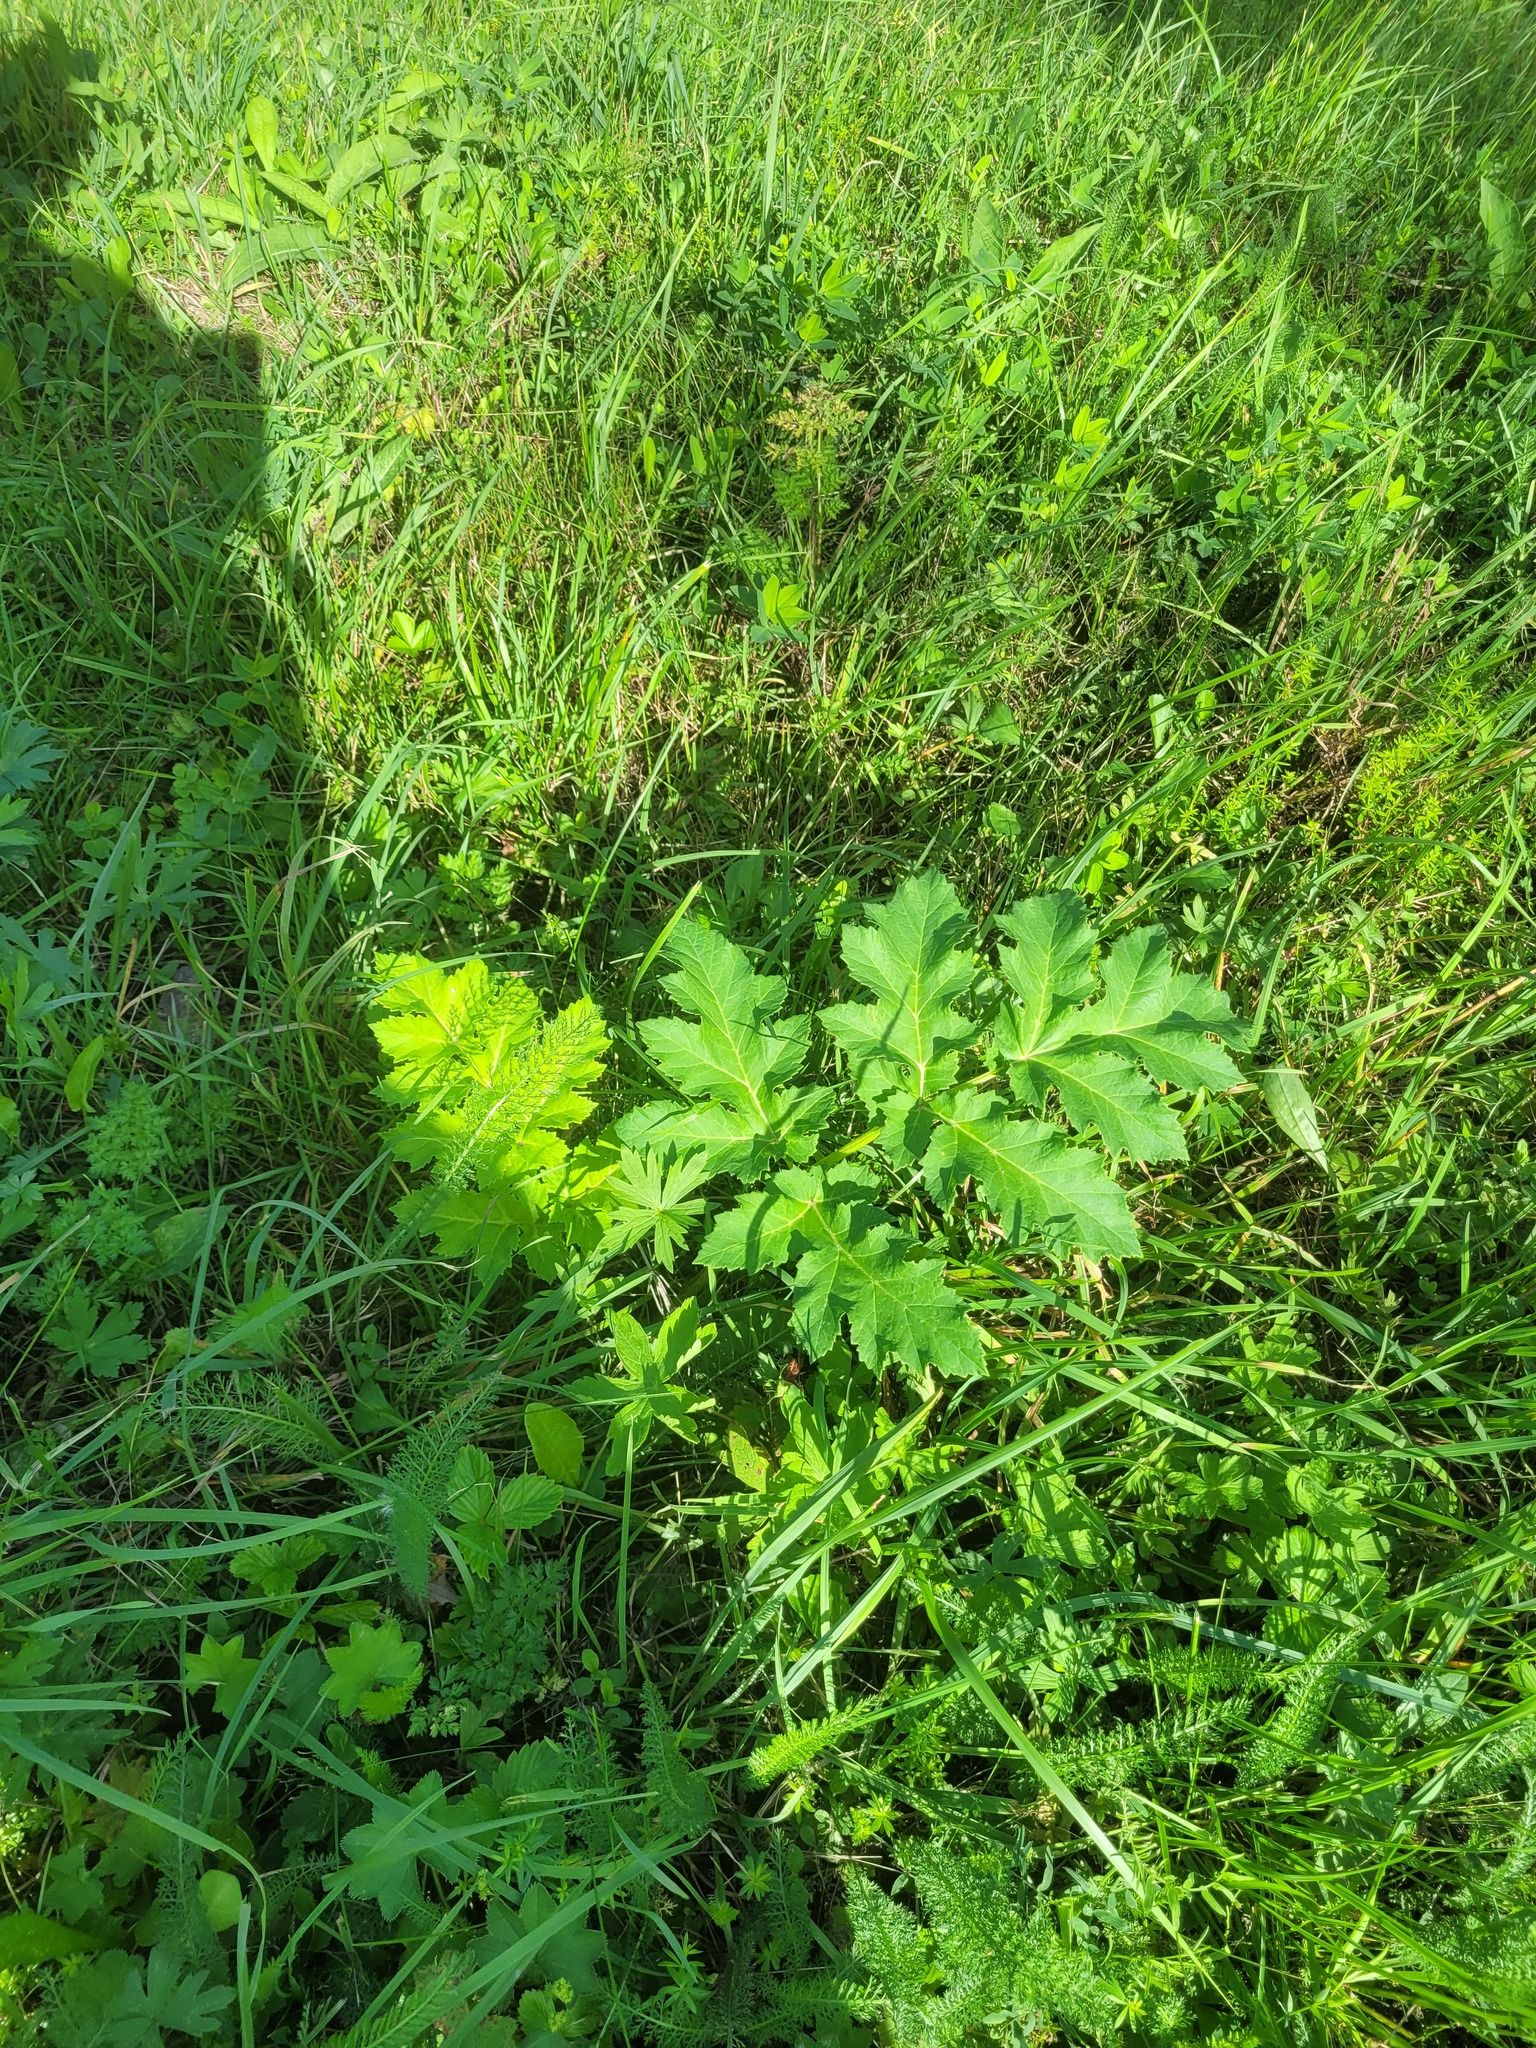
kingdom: Plantae
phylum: Tracheophyta
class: Magnoliopsida
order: Apiales
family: Apiaceae
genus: Heracleum
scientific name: Heracleum sosnowskyi
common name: Sosnowsky's hogweed
